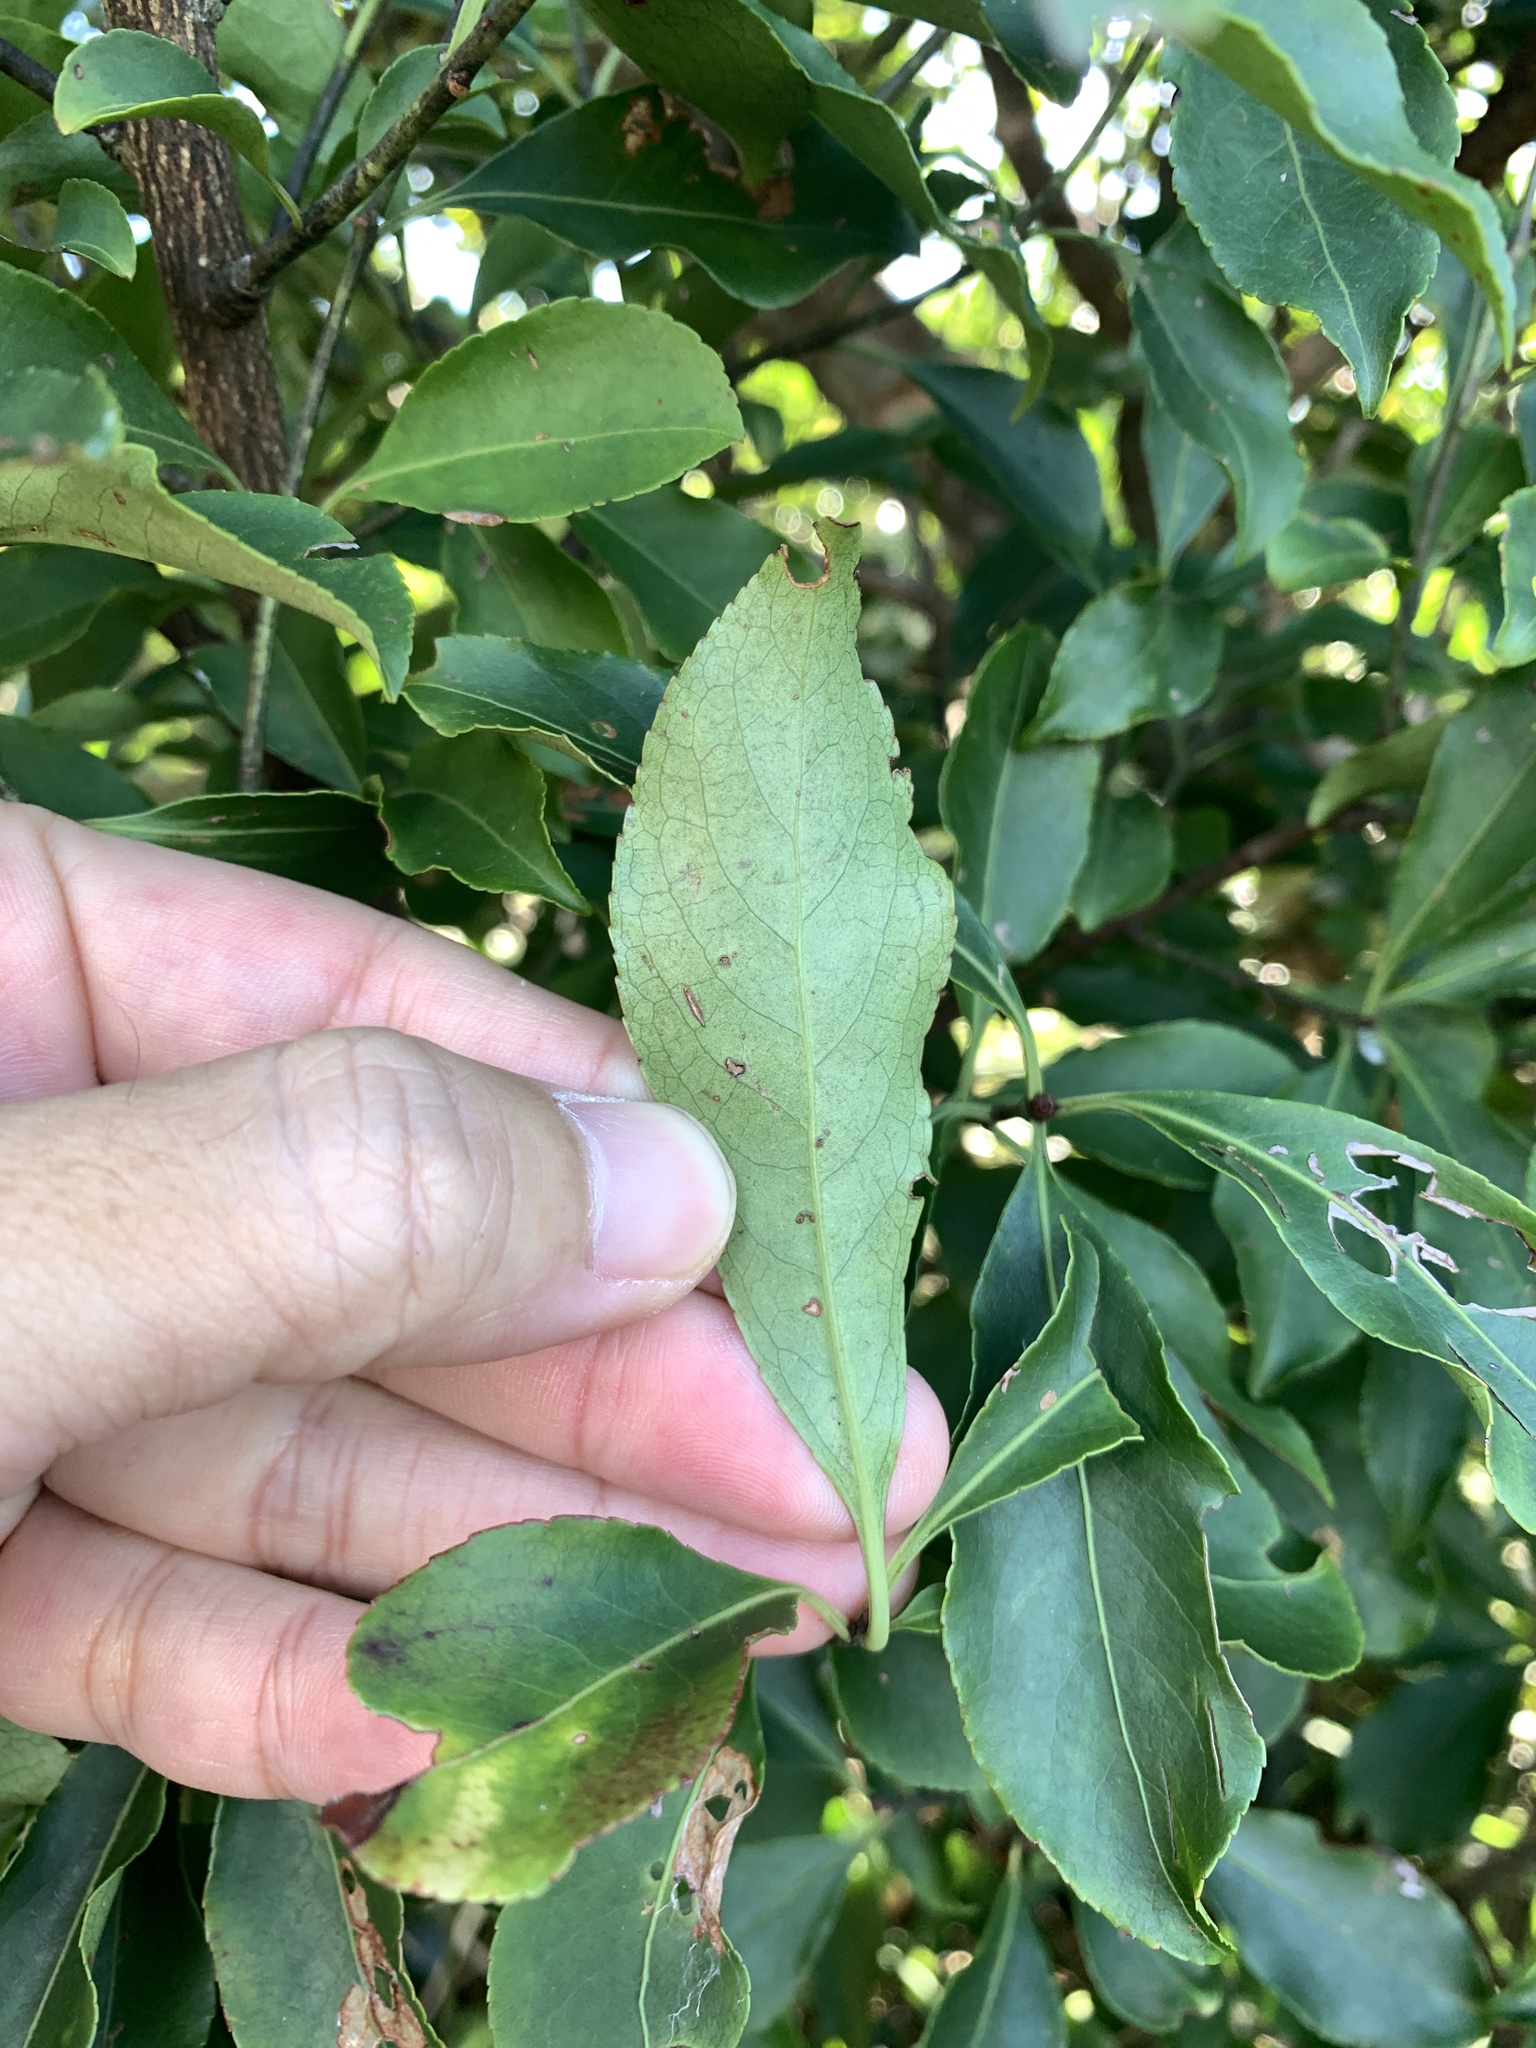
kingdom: Plantae
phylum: Tracheophyta
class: Magnoliopsida
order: Celastrales
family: Celastraceae
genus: Euonymus
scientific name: Euonymus carnosus
